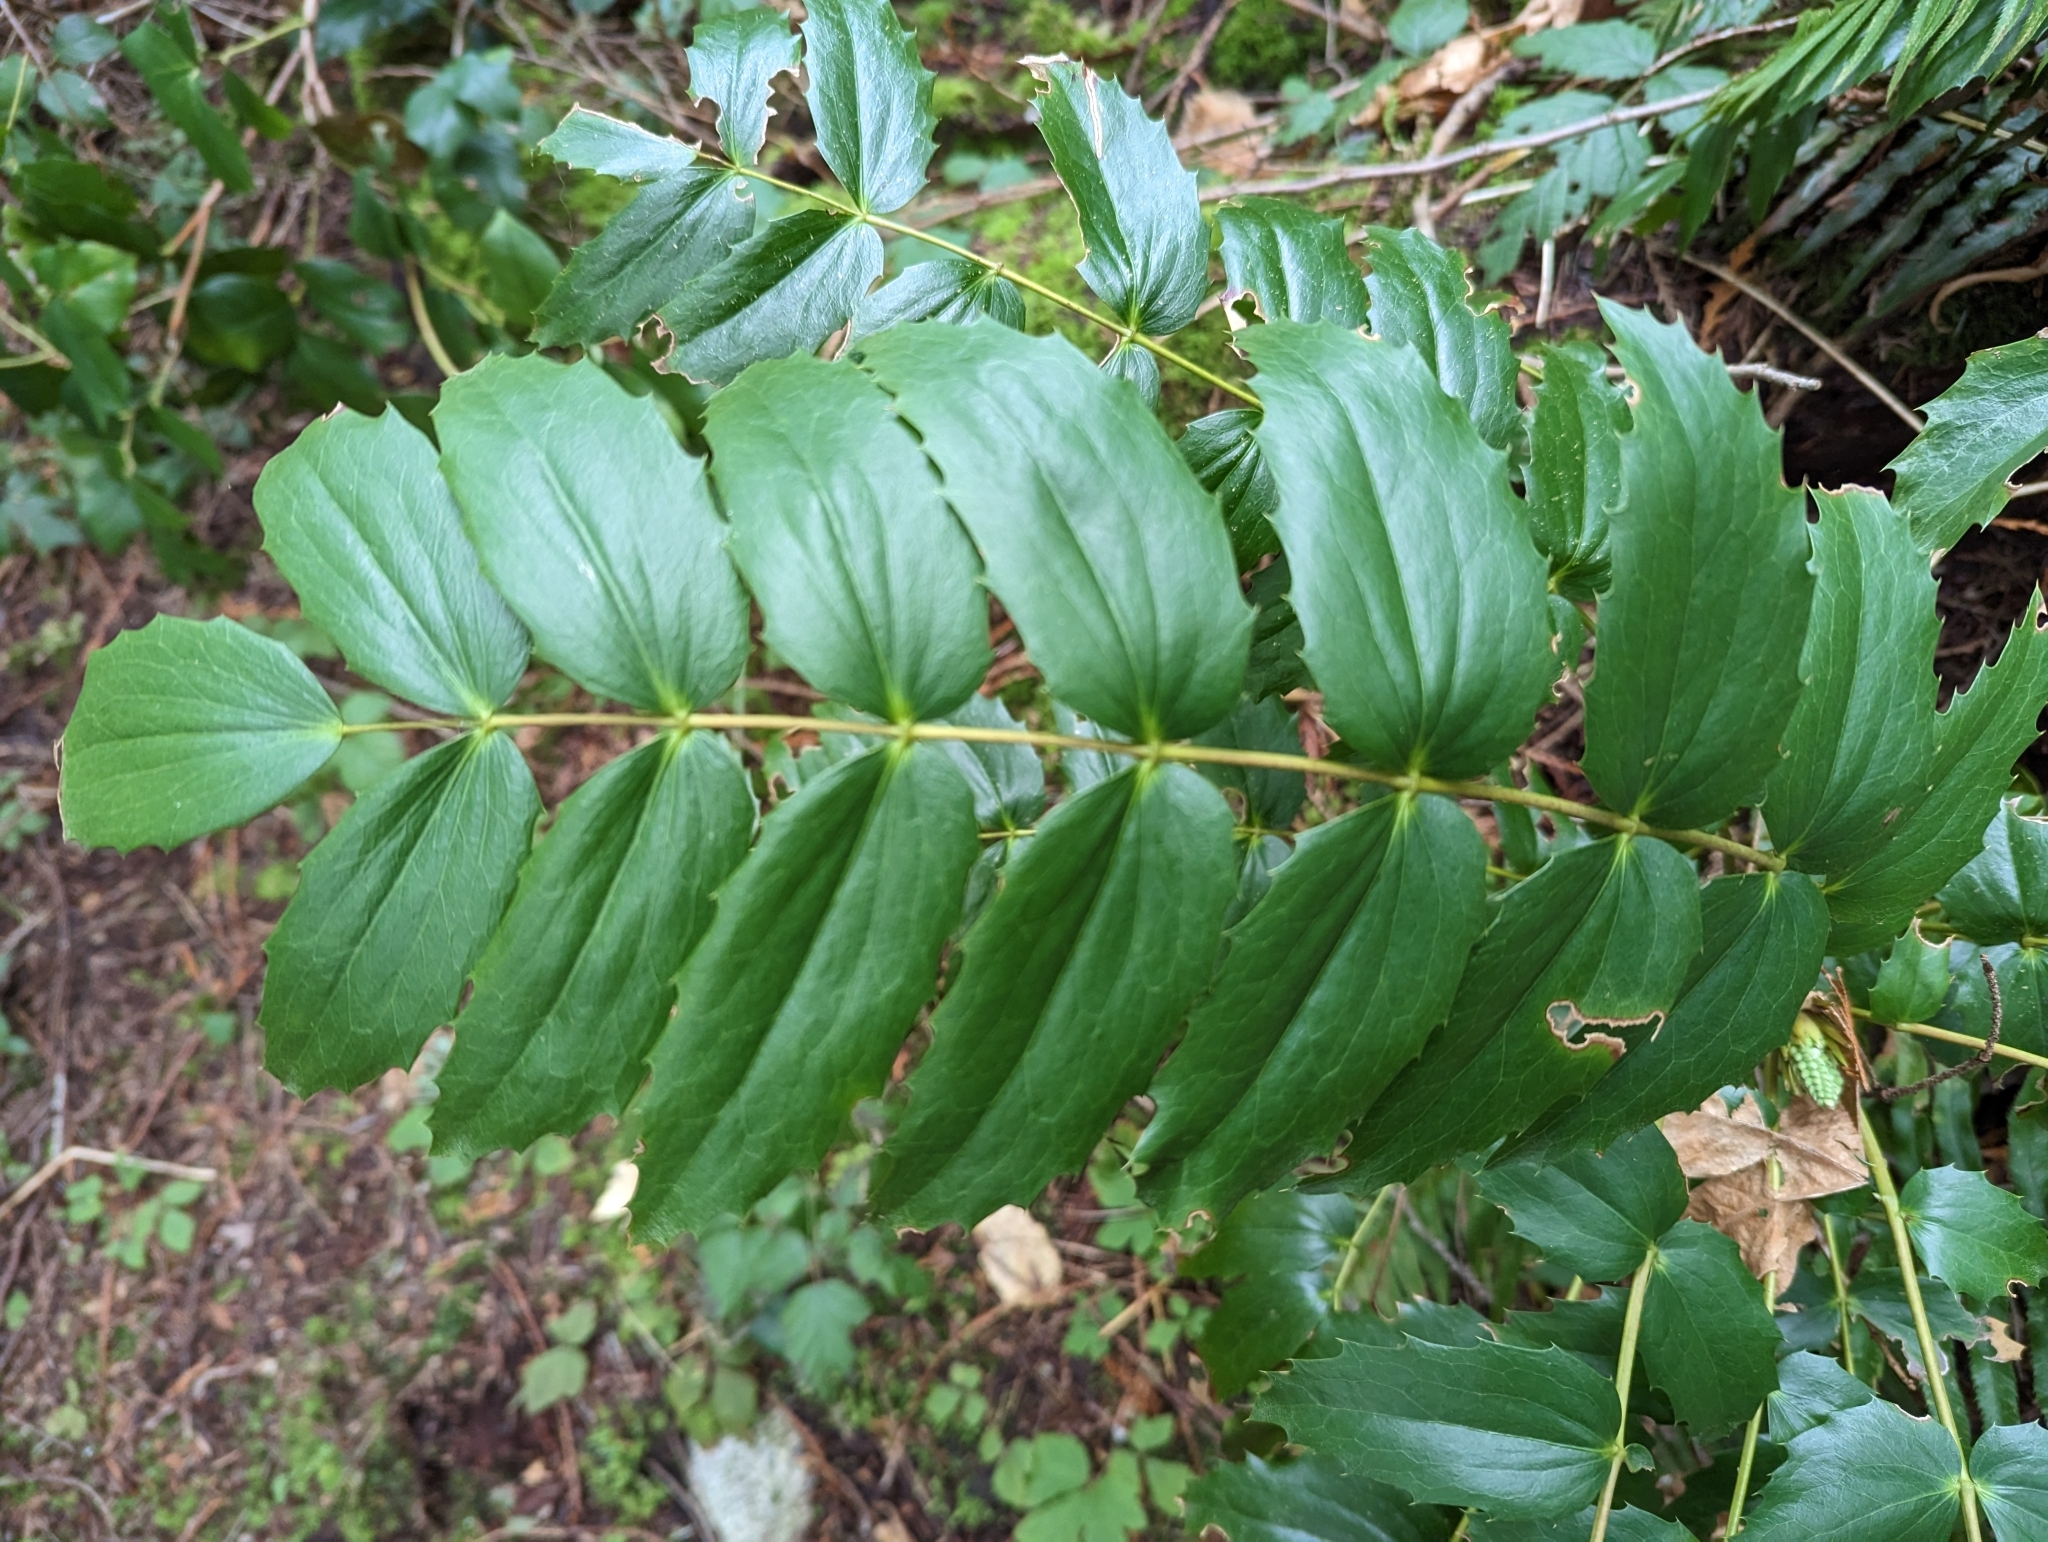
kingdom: Plantae
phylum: Tracheophyta
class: Magnoliopsida
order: Ranunculales
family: Berberidaceae
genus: Mahonia
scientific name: Mahonia nervosa
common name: Cascade oregon-grape
